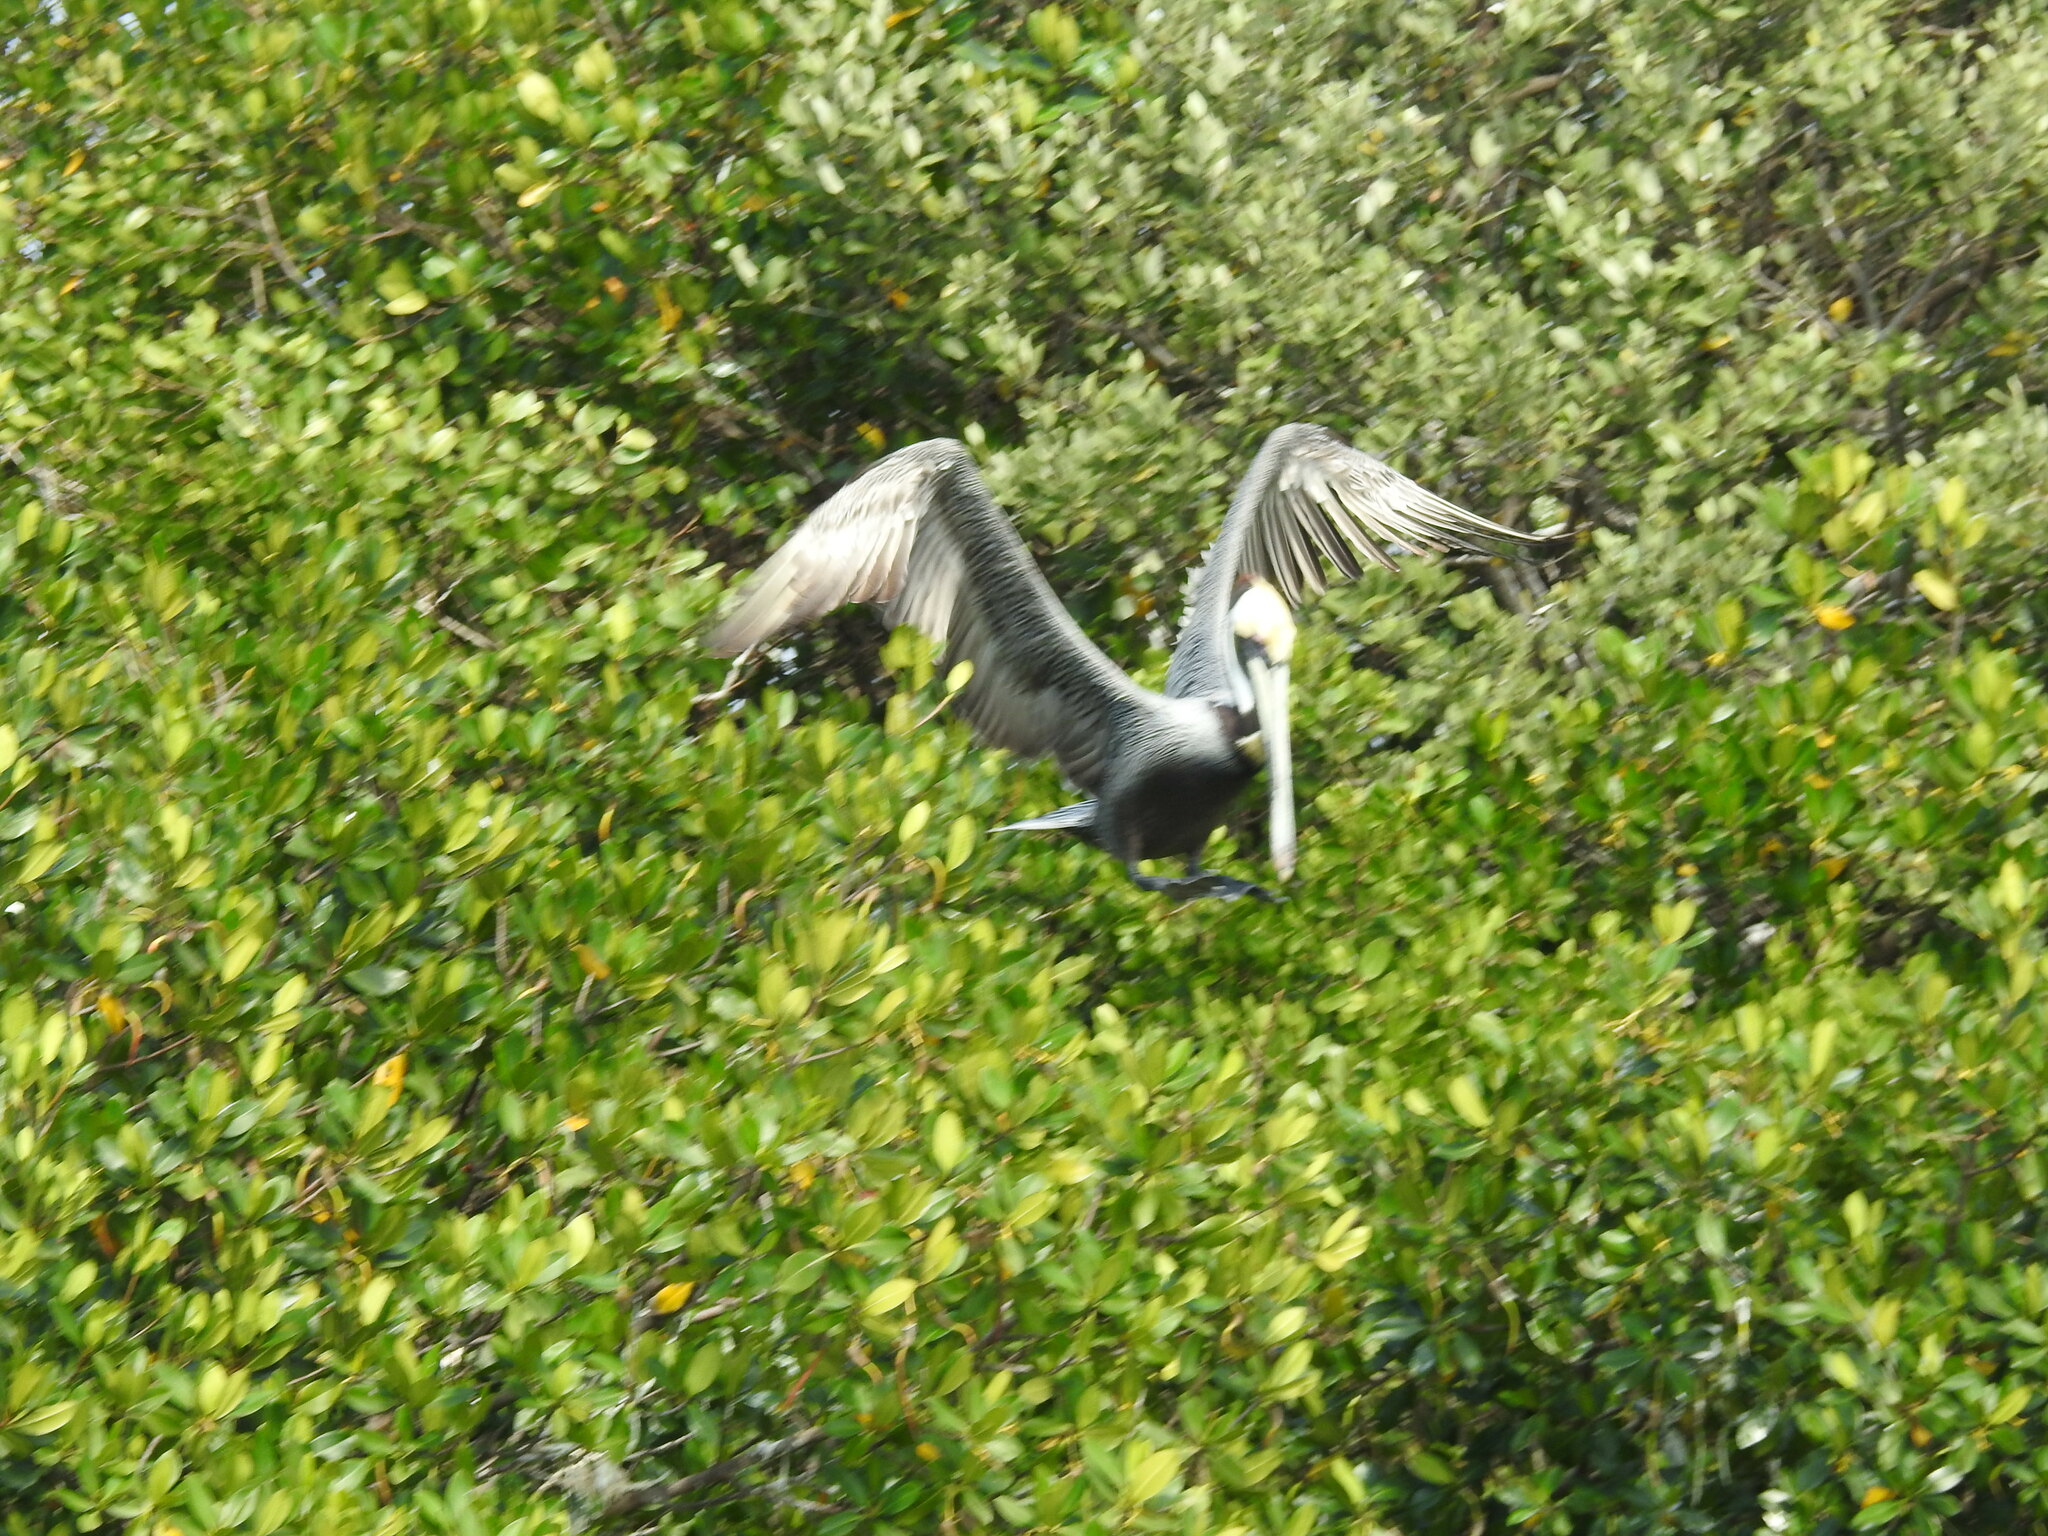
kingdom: Animalia
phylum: Chordata
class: Aves
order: Pelecaniformes
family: Pelecanidae
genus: Pelecanus
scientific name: Pelecanus occidentalis
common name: Brown pelican
